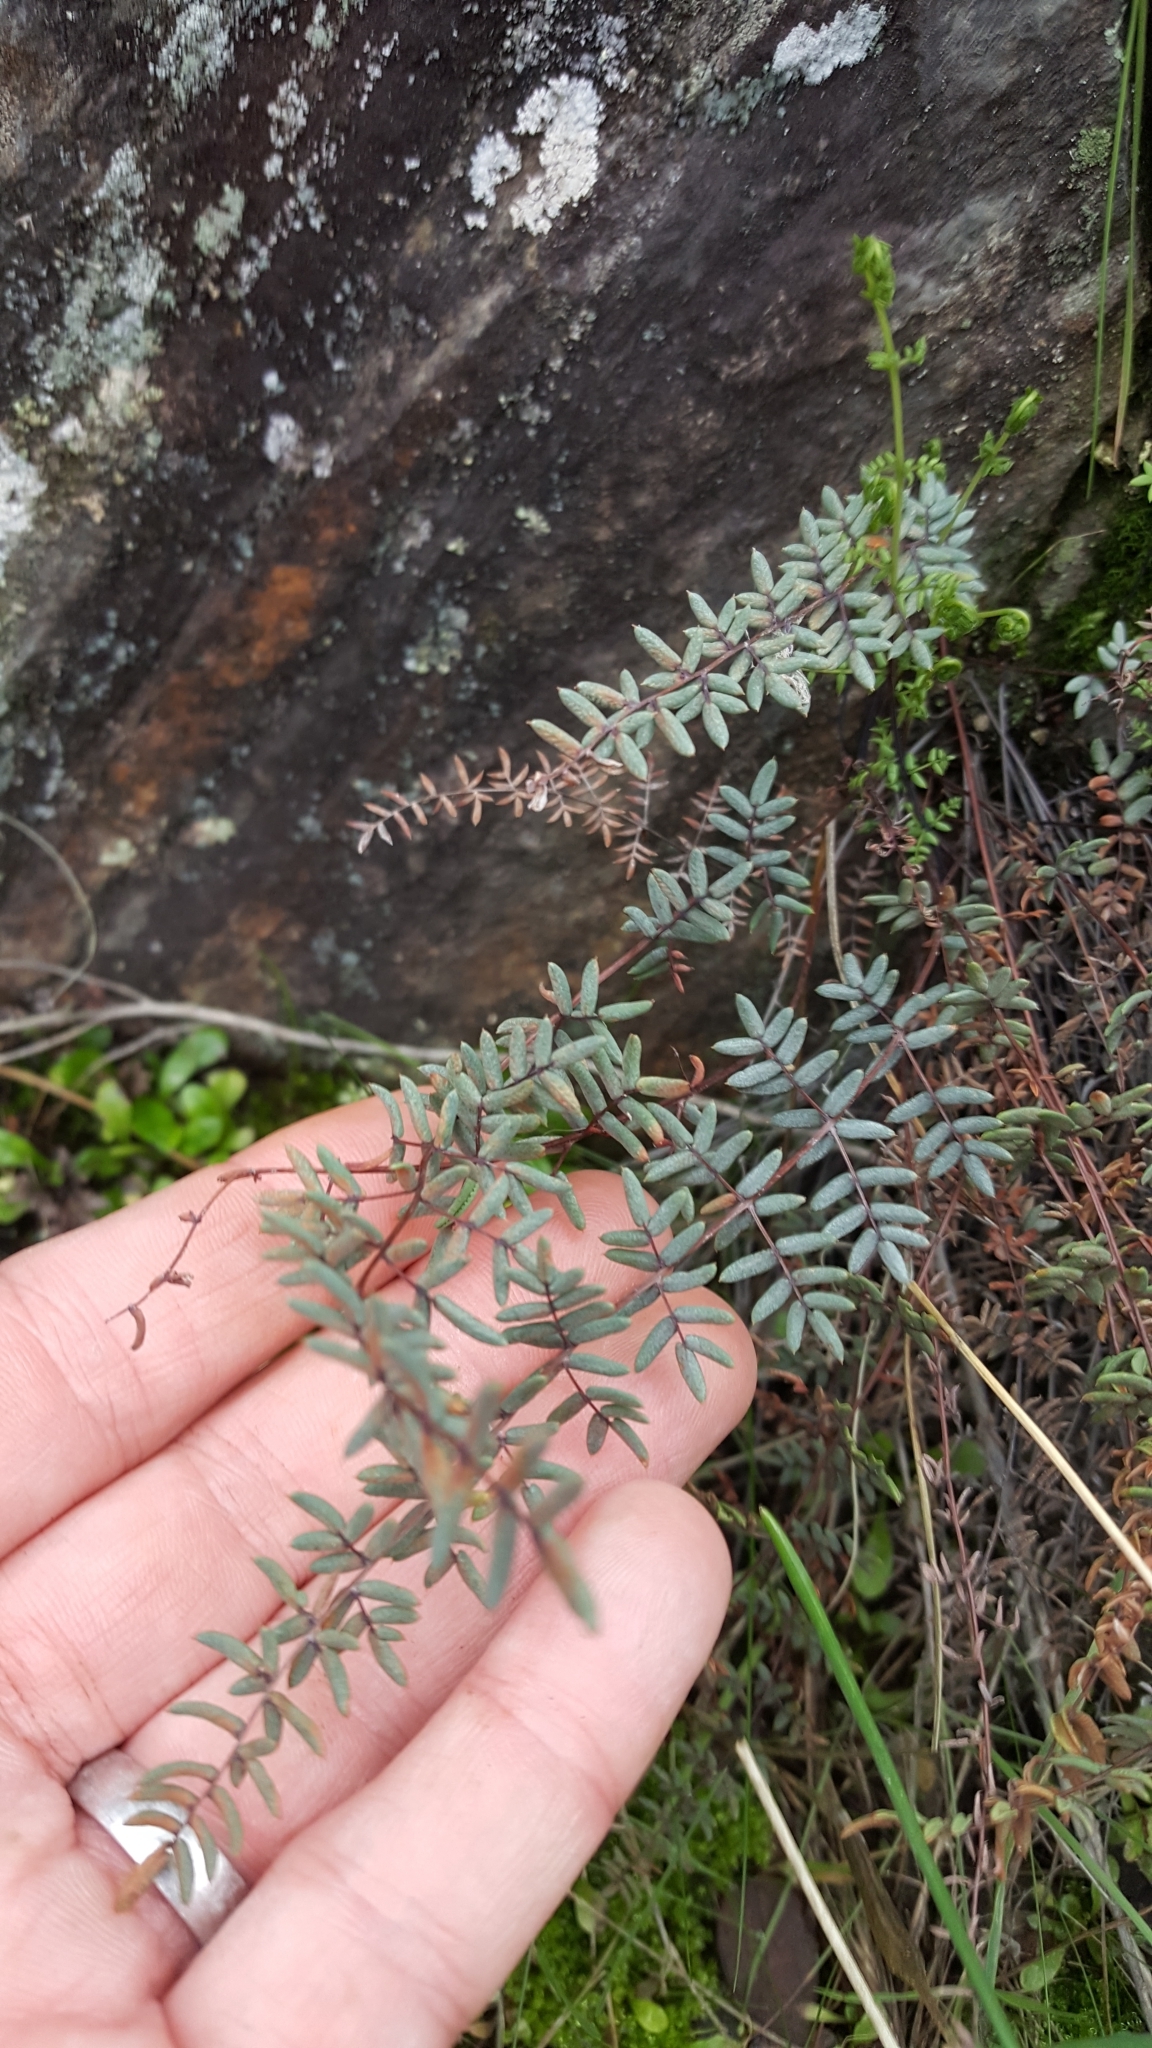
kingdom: Plantae
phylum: Tracheophyta
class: Polypodiopsida
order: Polypodiales
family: Pteridaceae
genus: Pellaea
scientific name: Pellaea mucronata
